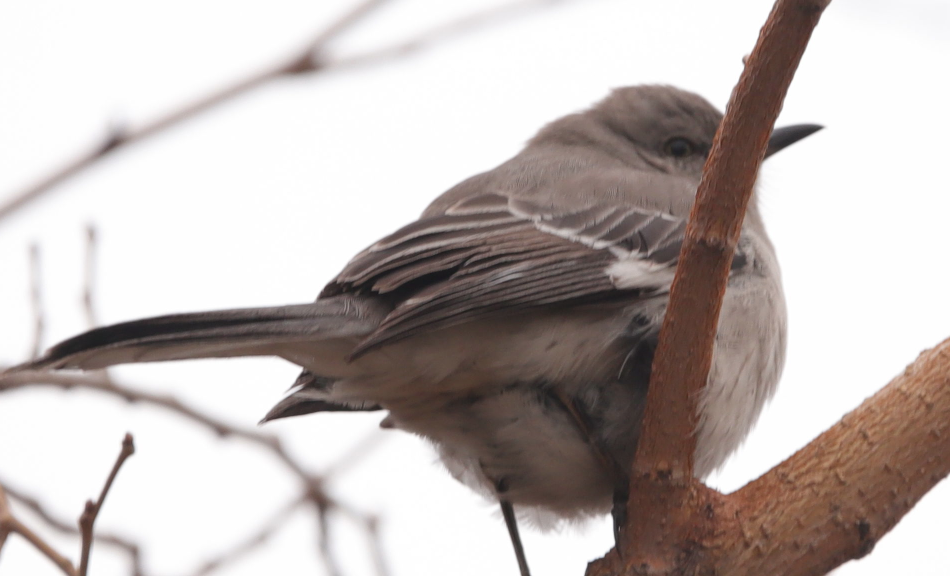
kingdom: Animalia
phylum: Chordata
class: Aves
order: Passeriformes
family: Mimidae
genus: Mimus
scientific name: Mimus polyglottos
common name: Northern mockingbird
